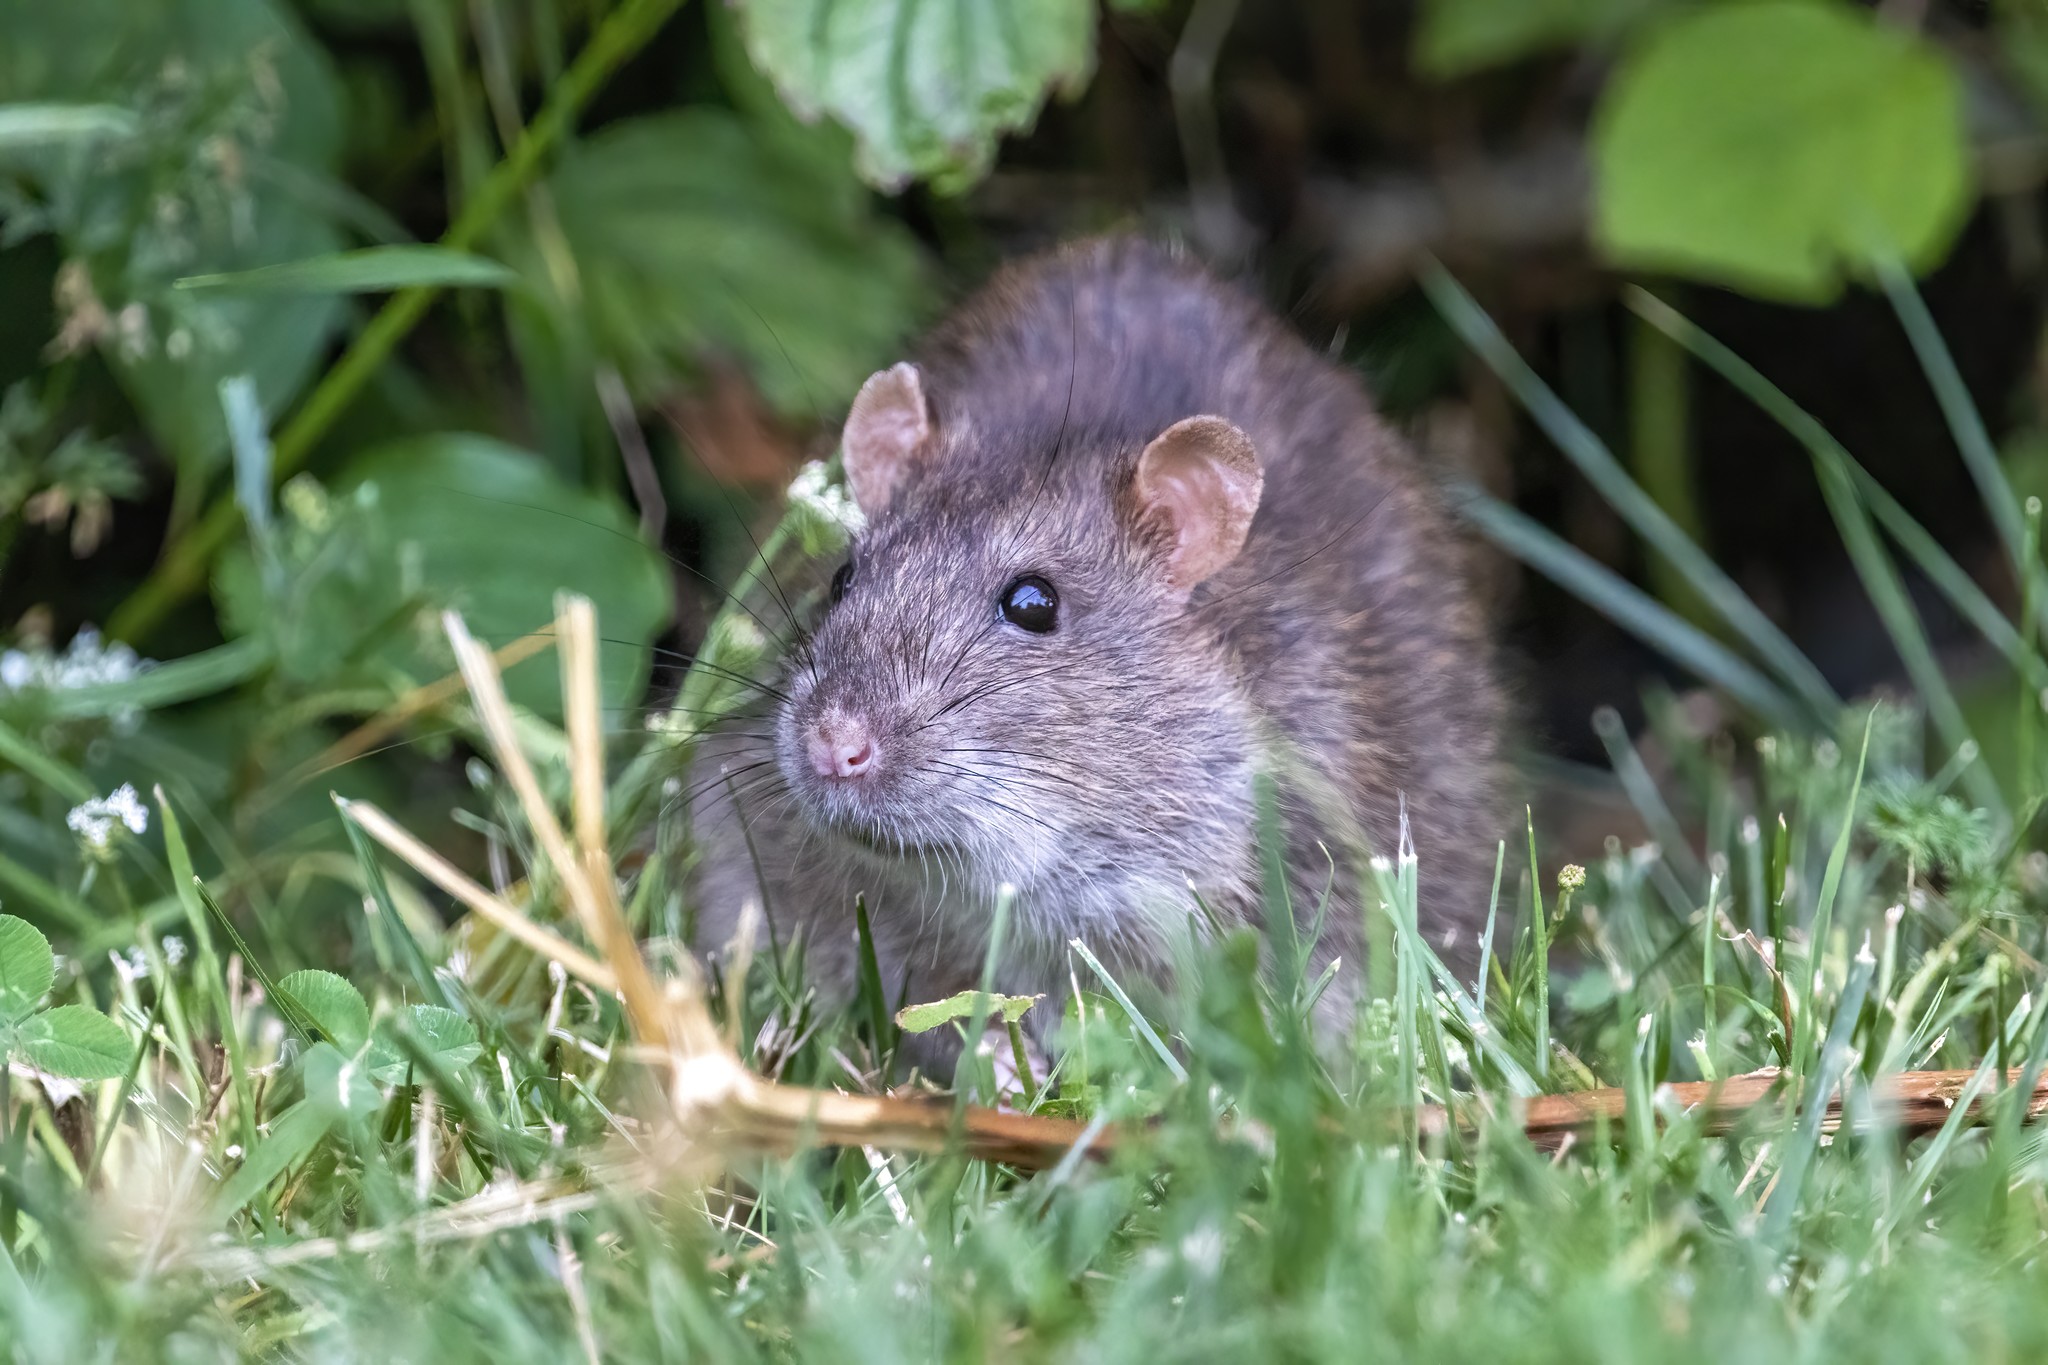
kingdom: Animalia
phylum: Chordata
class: Mammalia
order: Rodentia
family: Muridae
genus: Rattus
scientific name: Rattus norvegicus
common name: Brown rat
